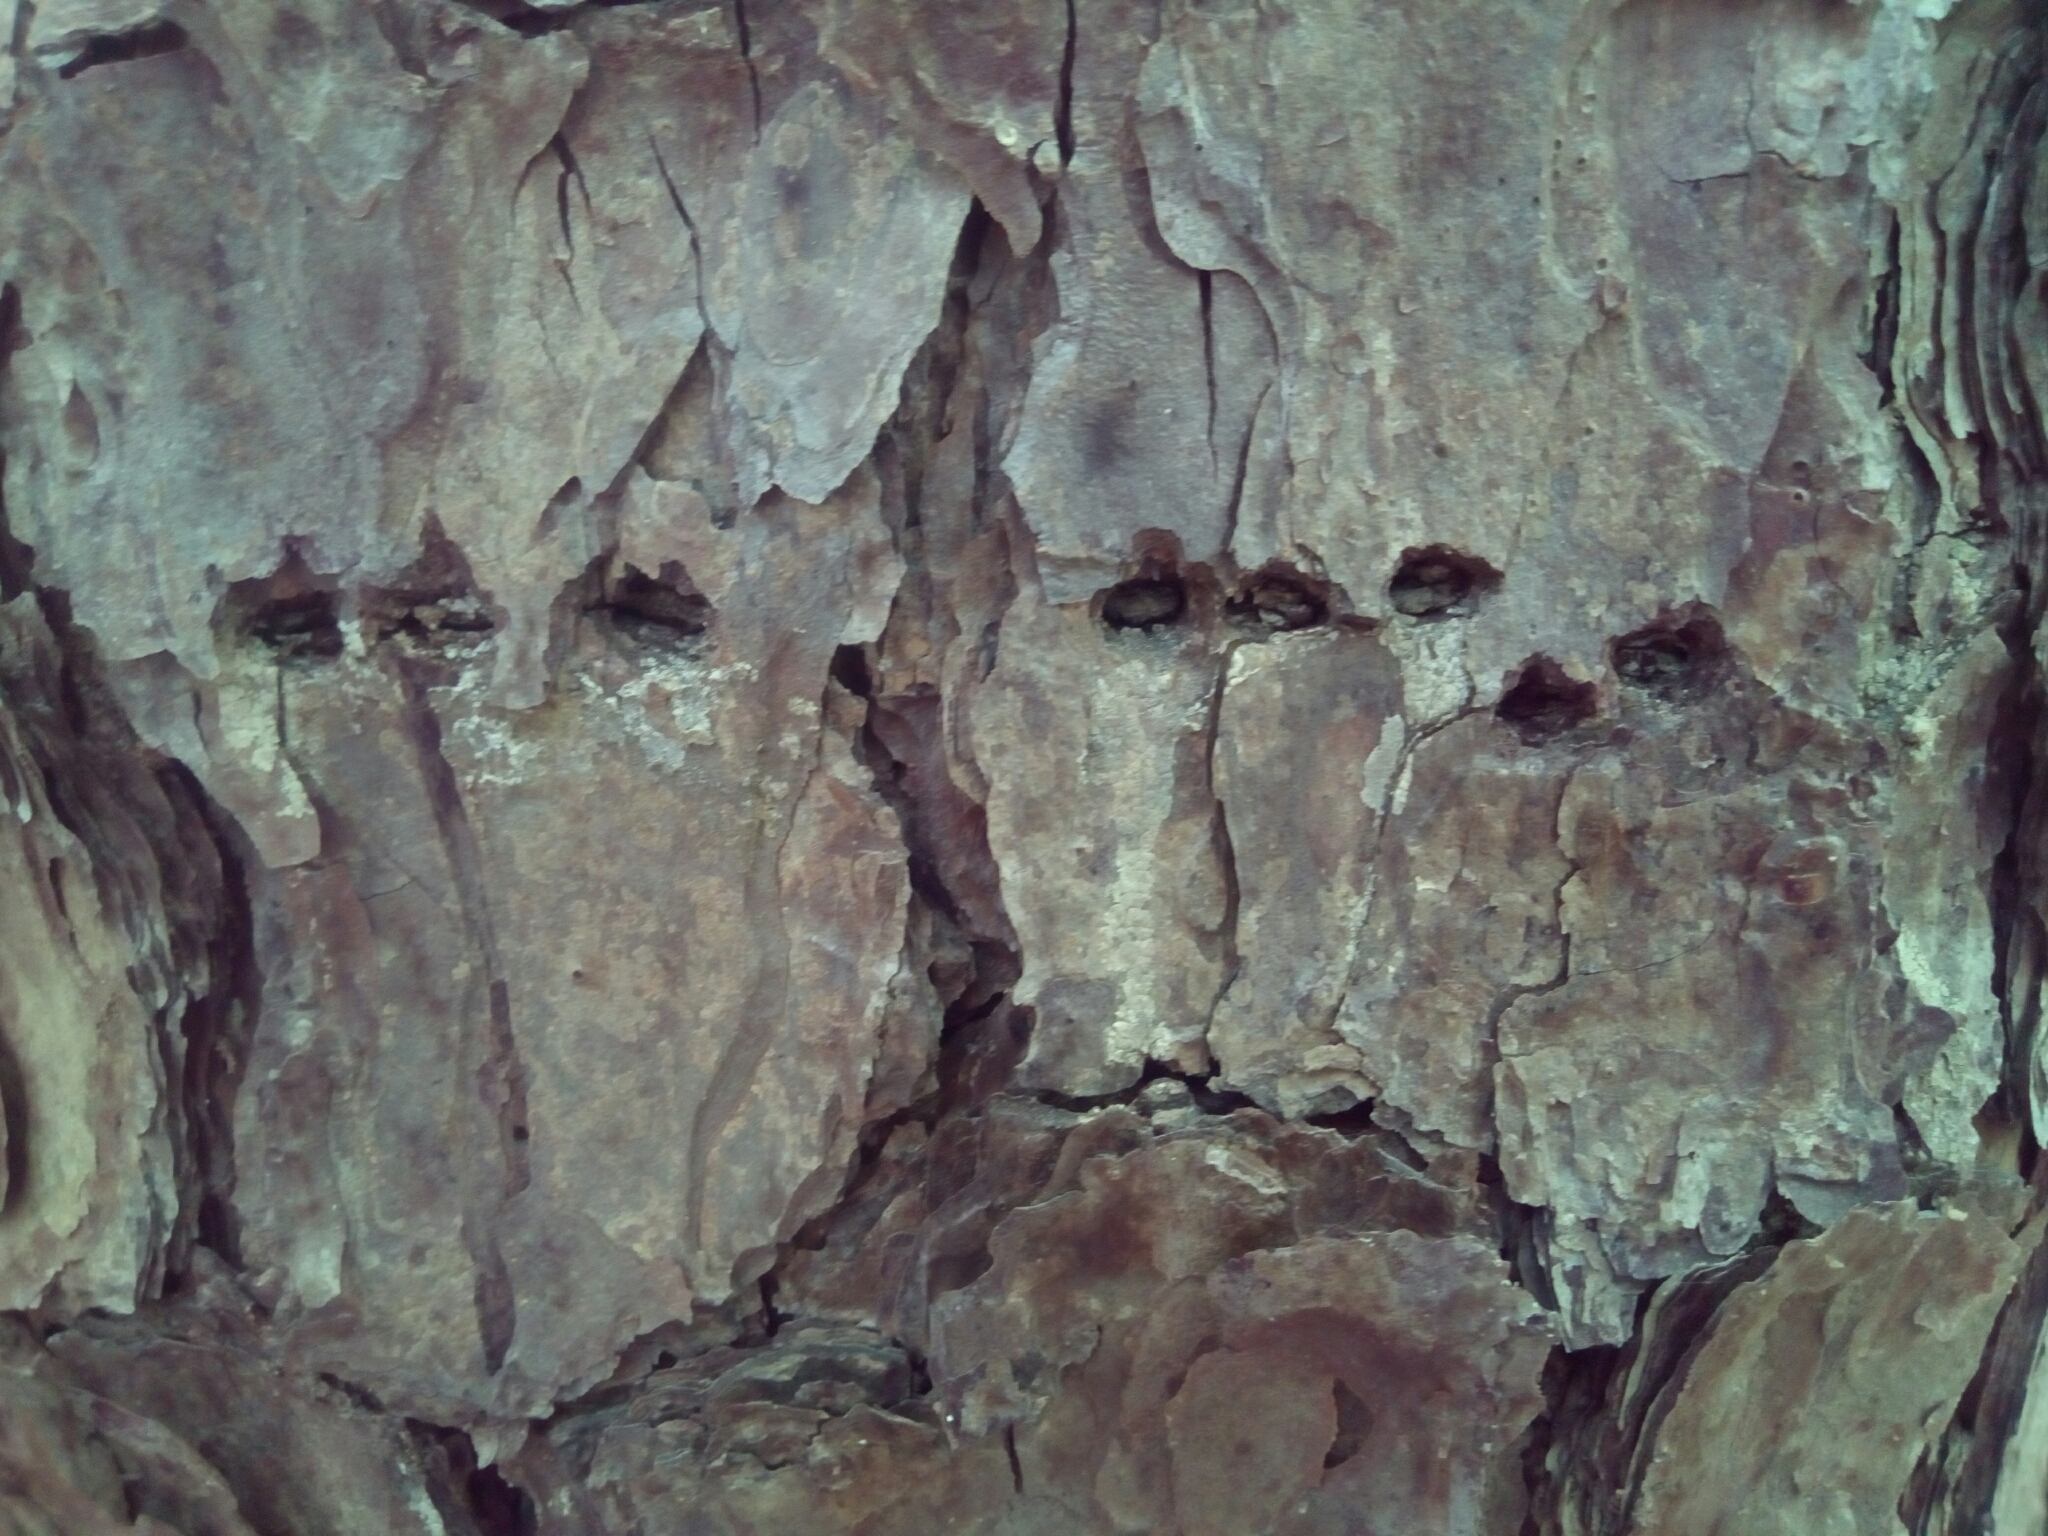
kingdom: Animalia
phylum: Chordata
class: Aves
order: Piciformes
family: Picidae
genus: Sphyrapicus
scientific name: Sphyrapicus varius
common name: Yellow-bellied sapsucker
